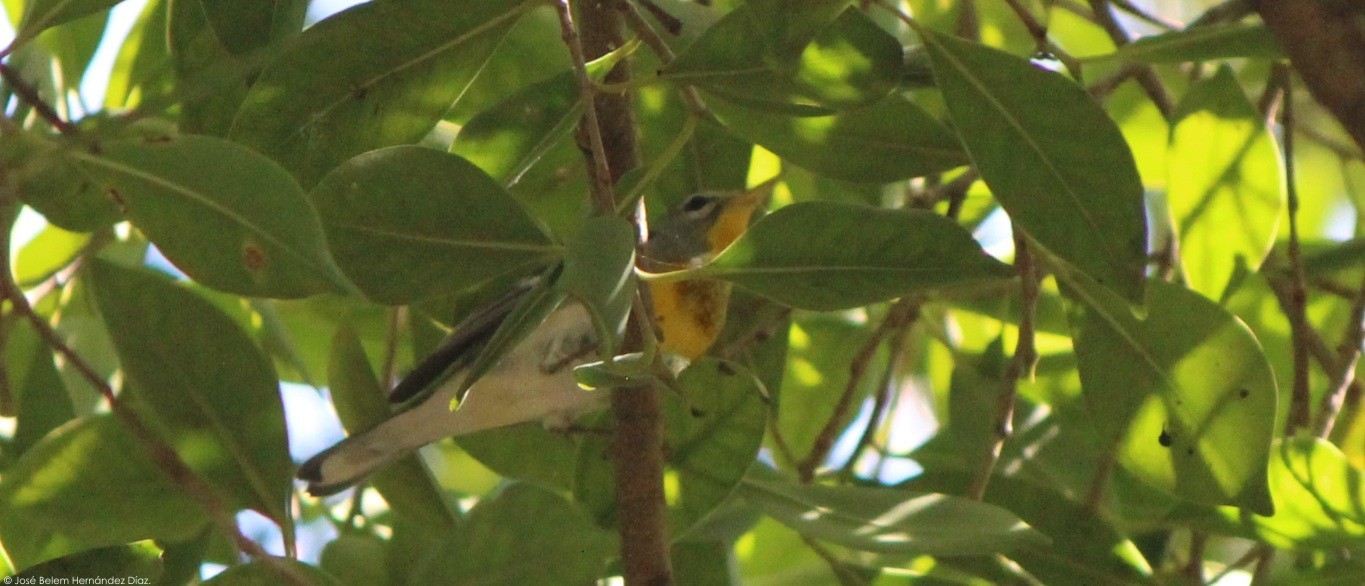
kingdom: Animalia
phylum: Chordata
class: Aves
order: Passeriformes
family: Parulidae
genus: Setophaga
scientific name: Setophaga americana
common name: Northern parula
